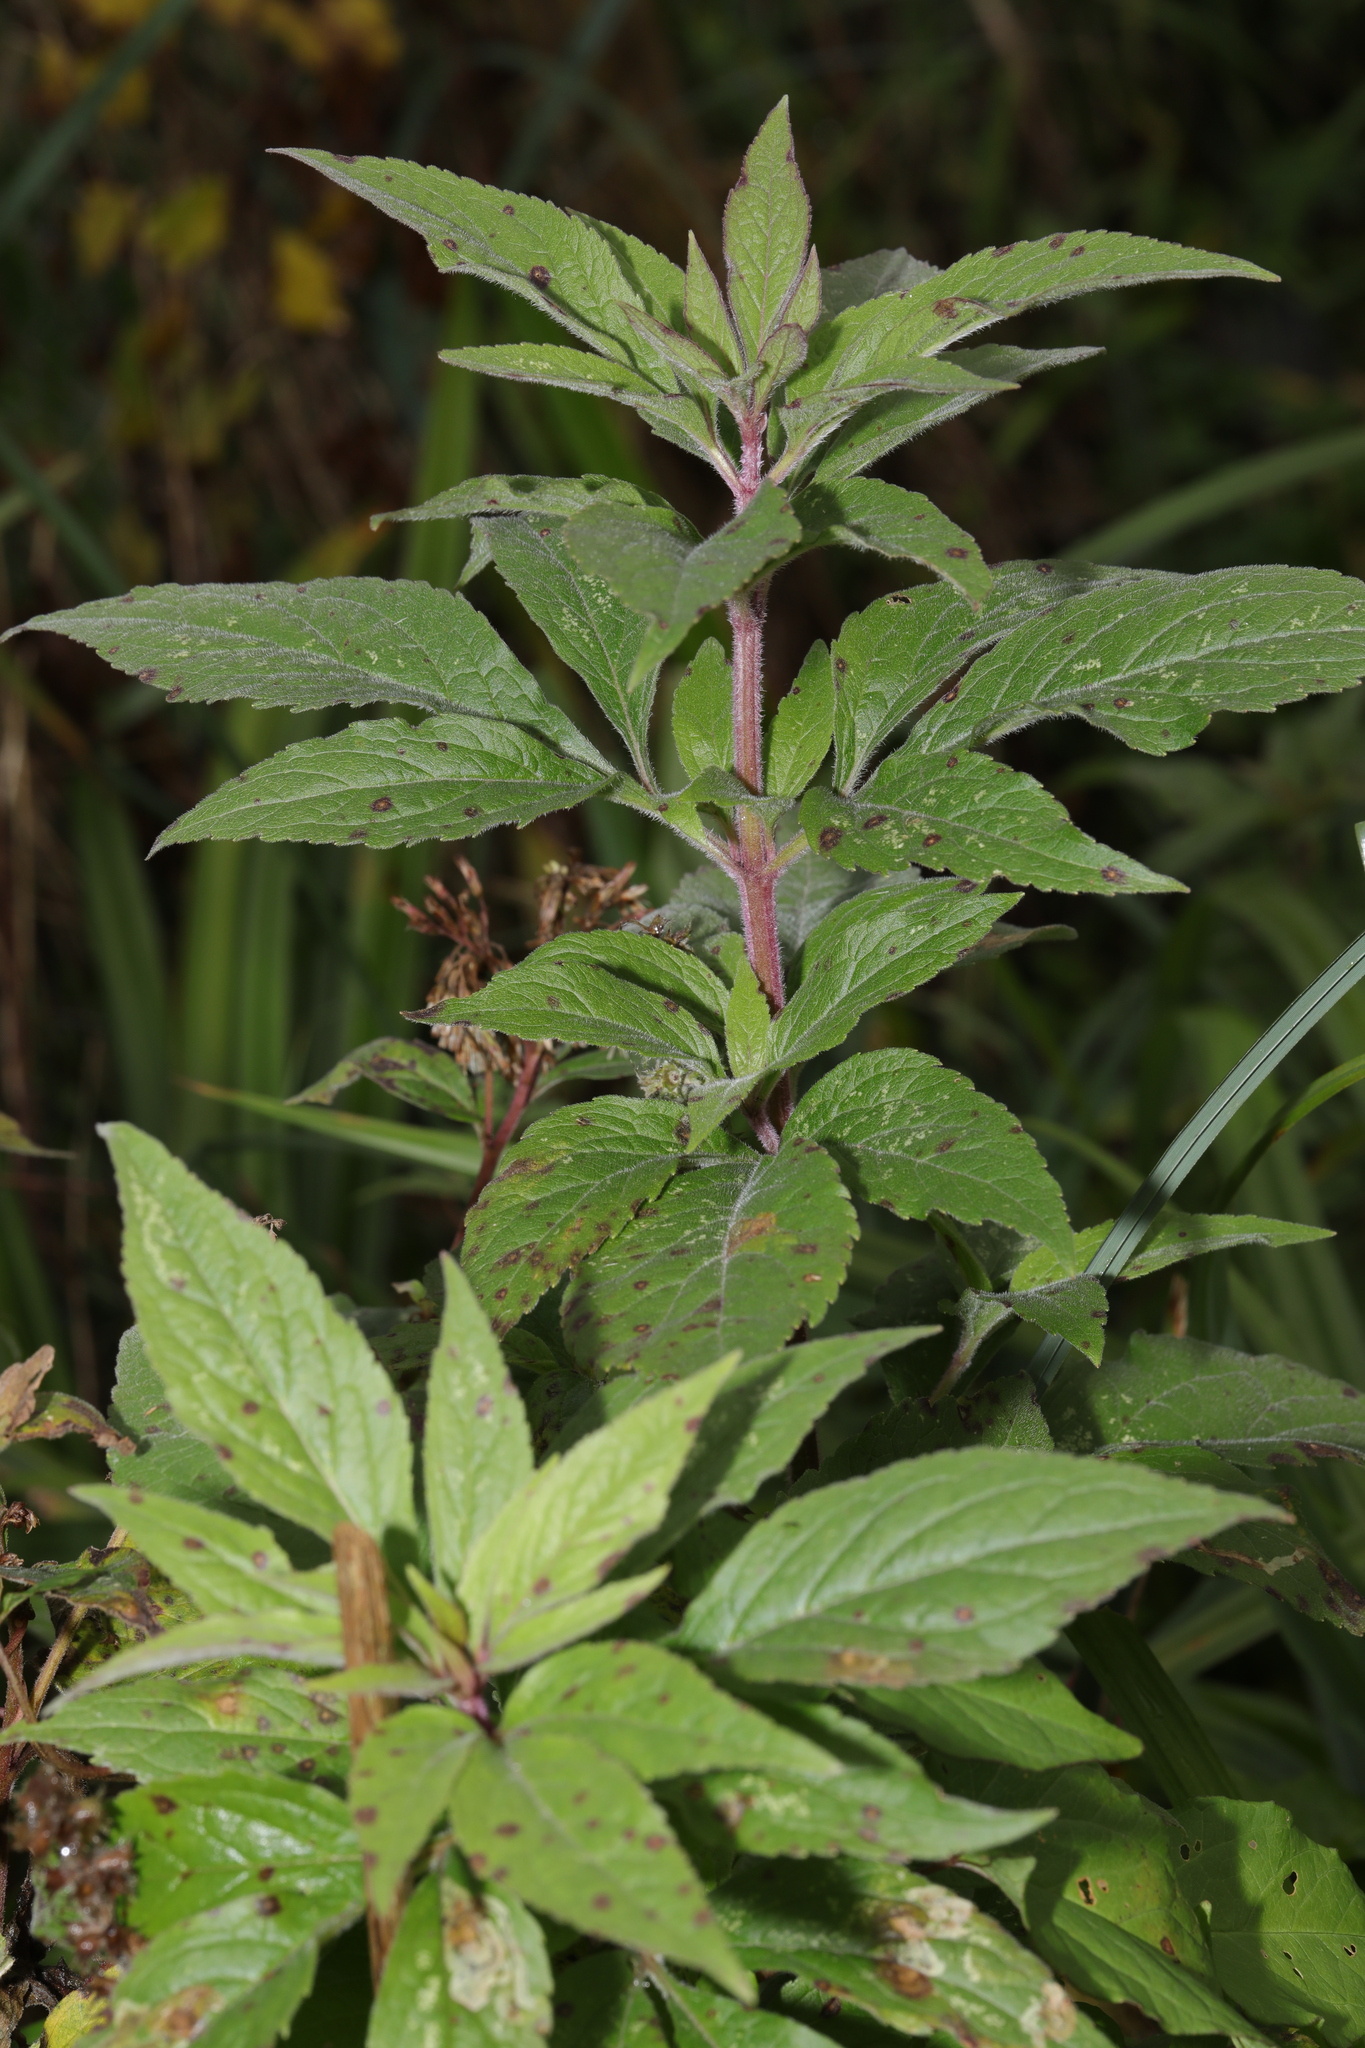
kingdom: Plantae
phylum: Tracheophyta
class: Magnoliopsida
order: Asterales
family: Asteraceae
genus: Eupatorium
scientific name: Eupatorium cannabinum
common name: Hemp-agrimony
